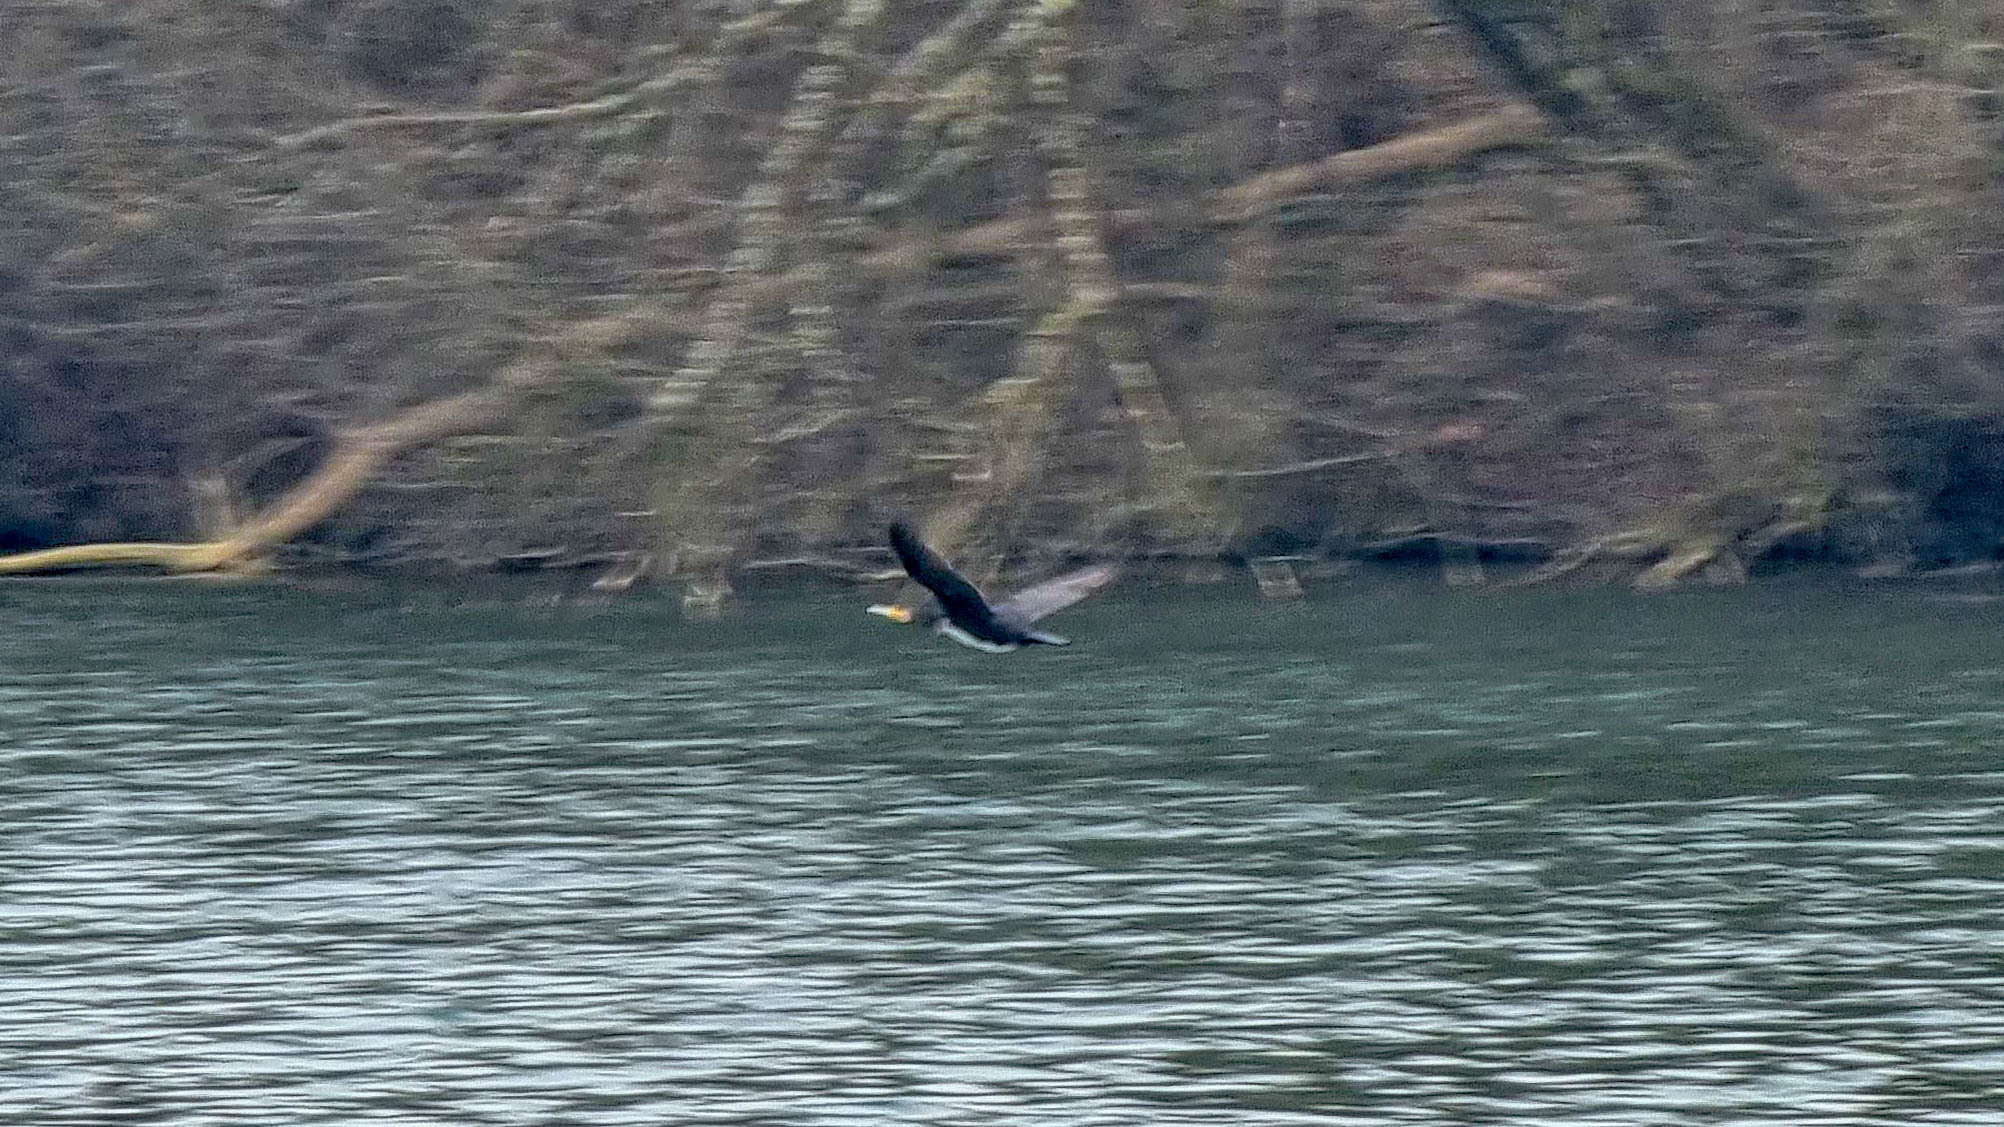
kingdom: Animalia
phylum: Chordata
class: Aves
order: Suliformes
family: Phalacrocoracidae
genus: Phalacrocorax
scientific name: Phalacrocorax carbo
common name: Great cormorant
